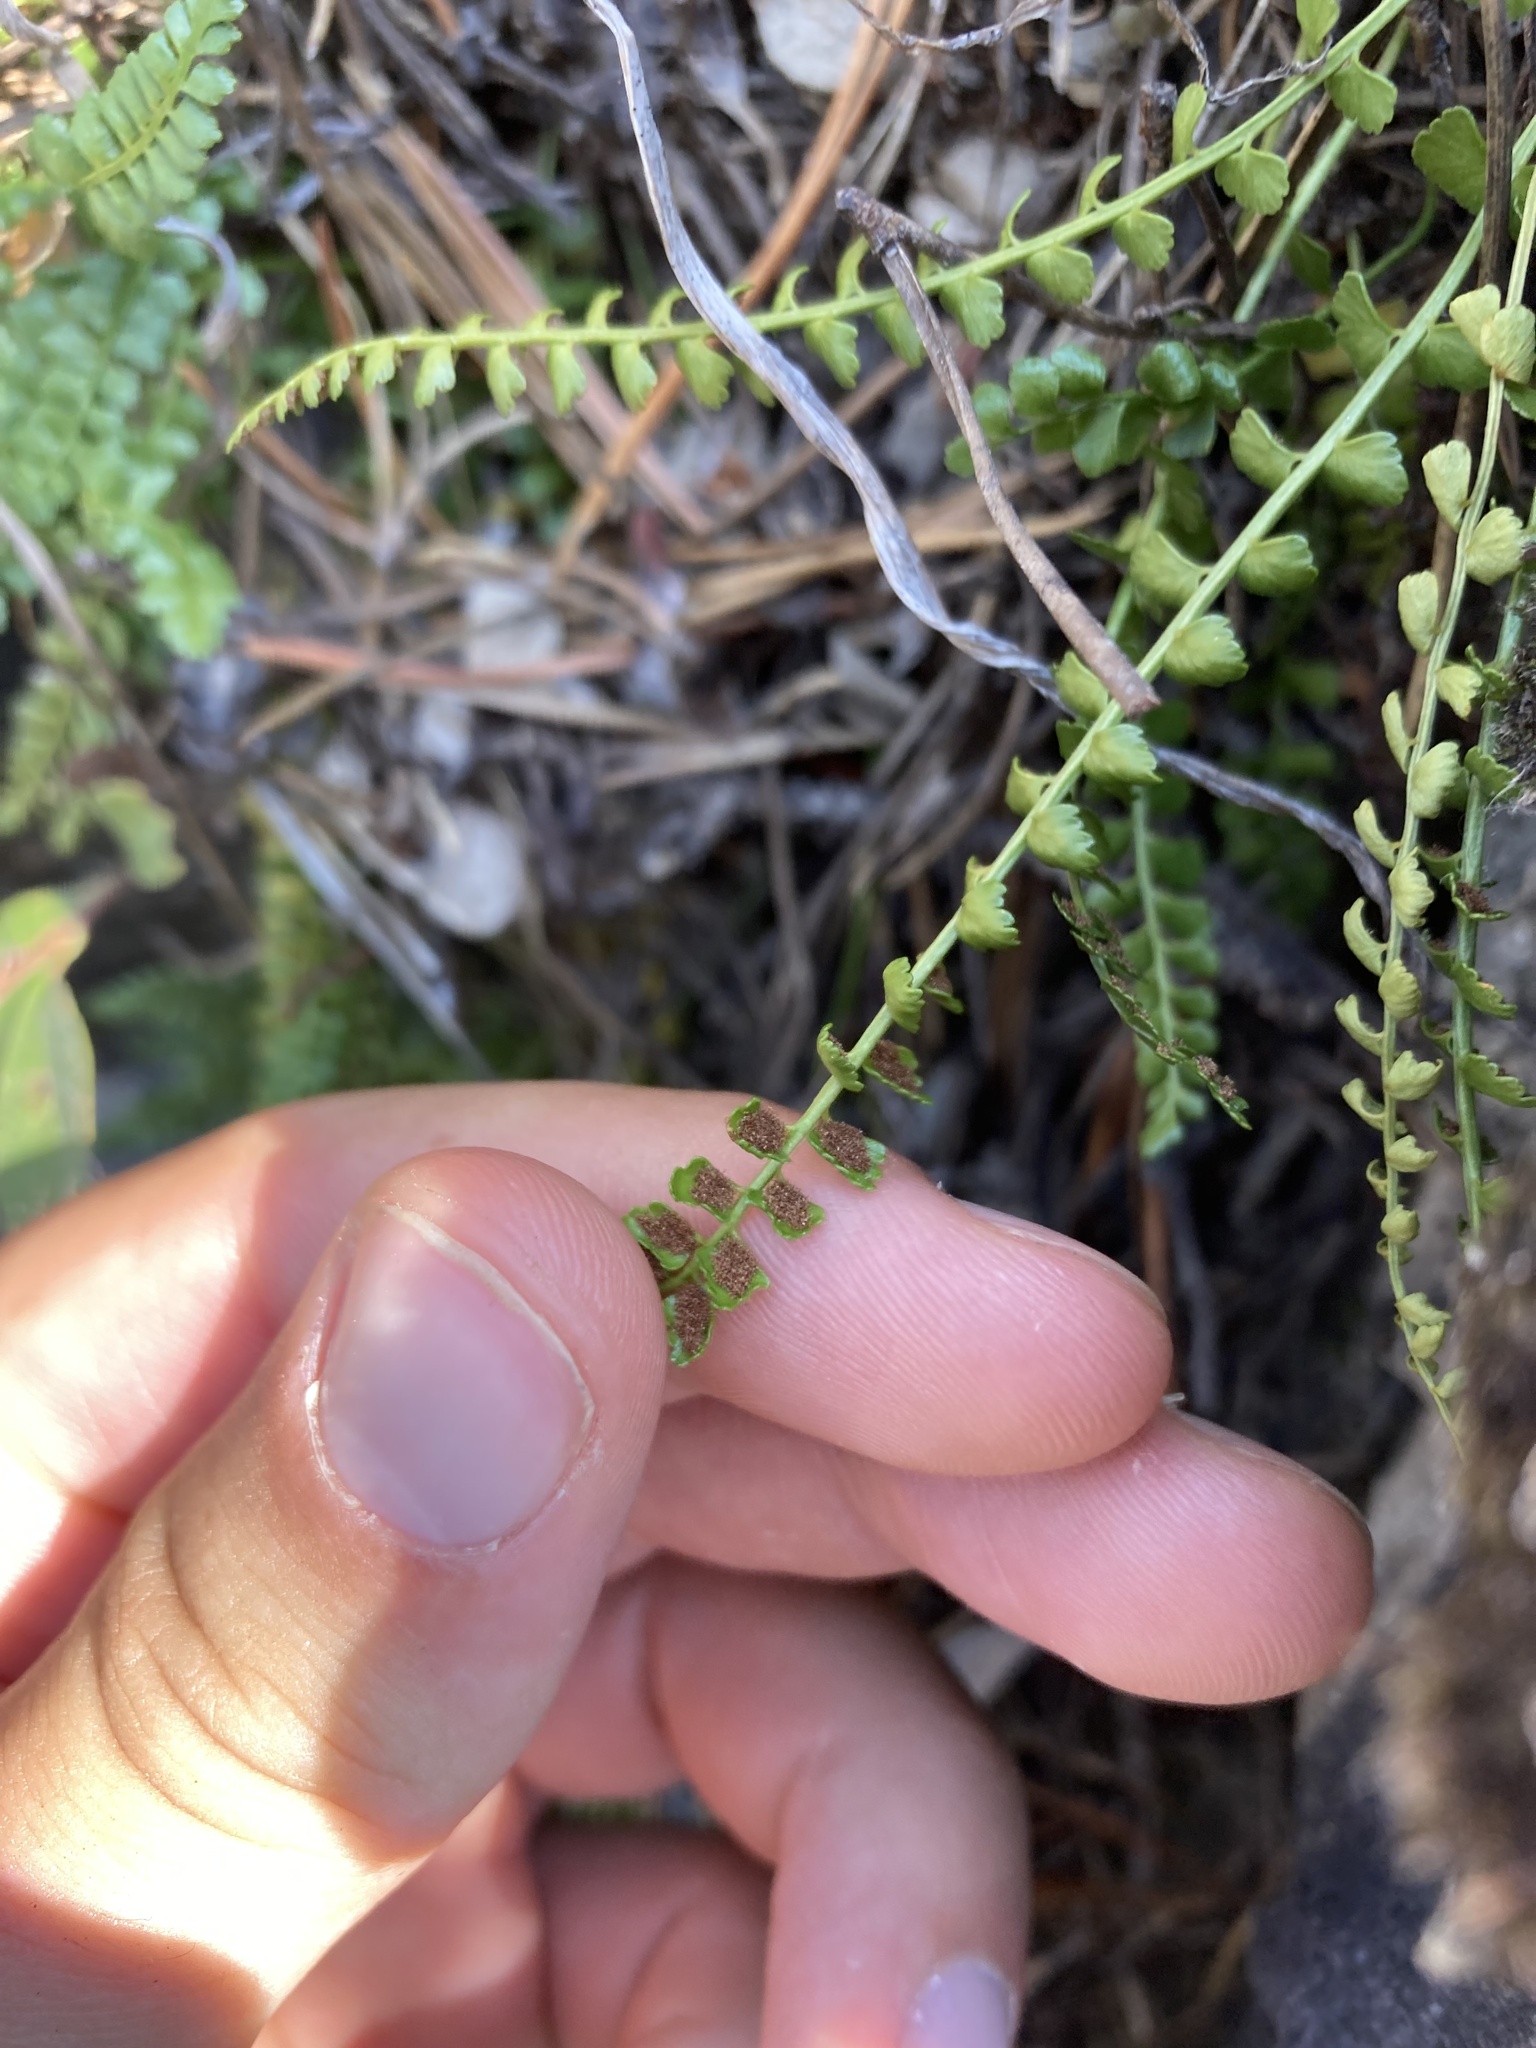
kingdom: Plantae
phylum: Tracheophyta
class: Polypodiopsida
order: Polypodiales
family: Aspleniaceae
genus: Asplenium
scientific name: Asplenium viride
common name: Green spleenwort
